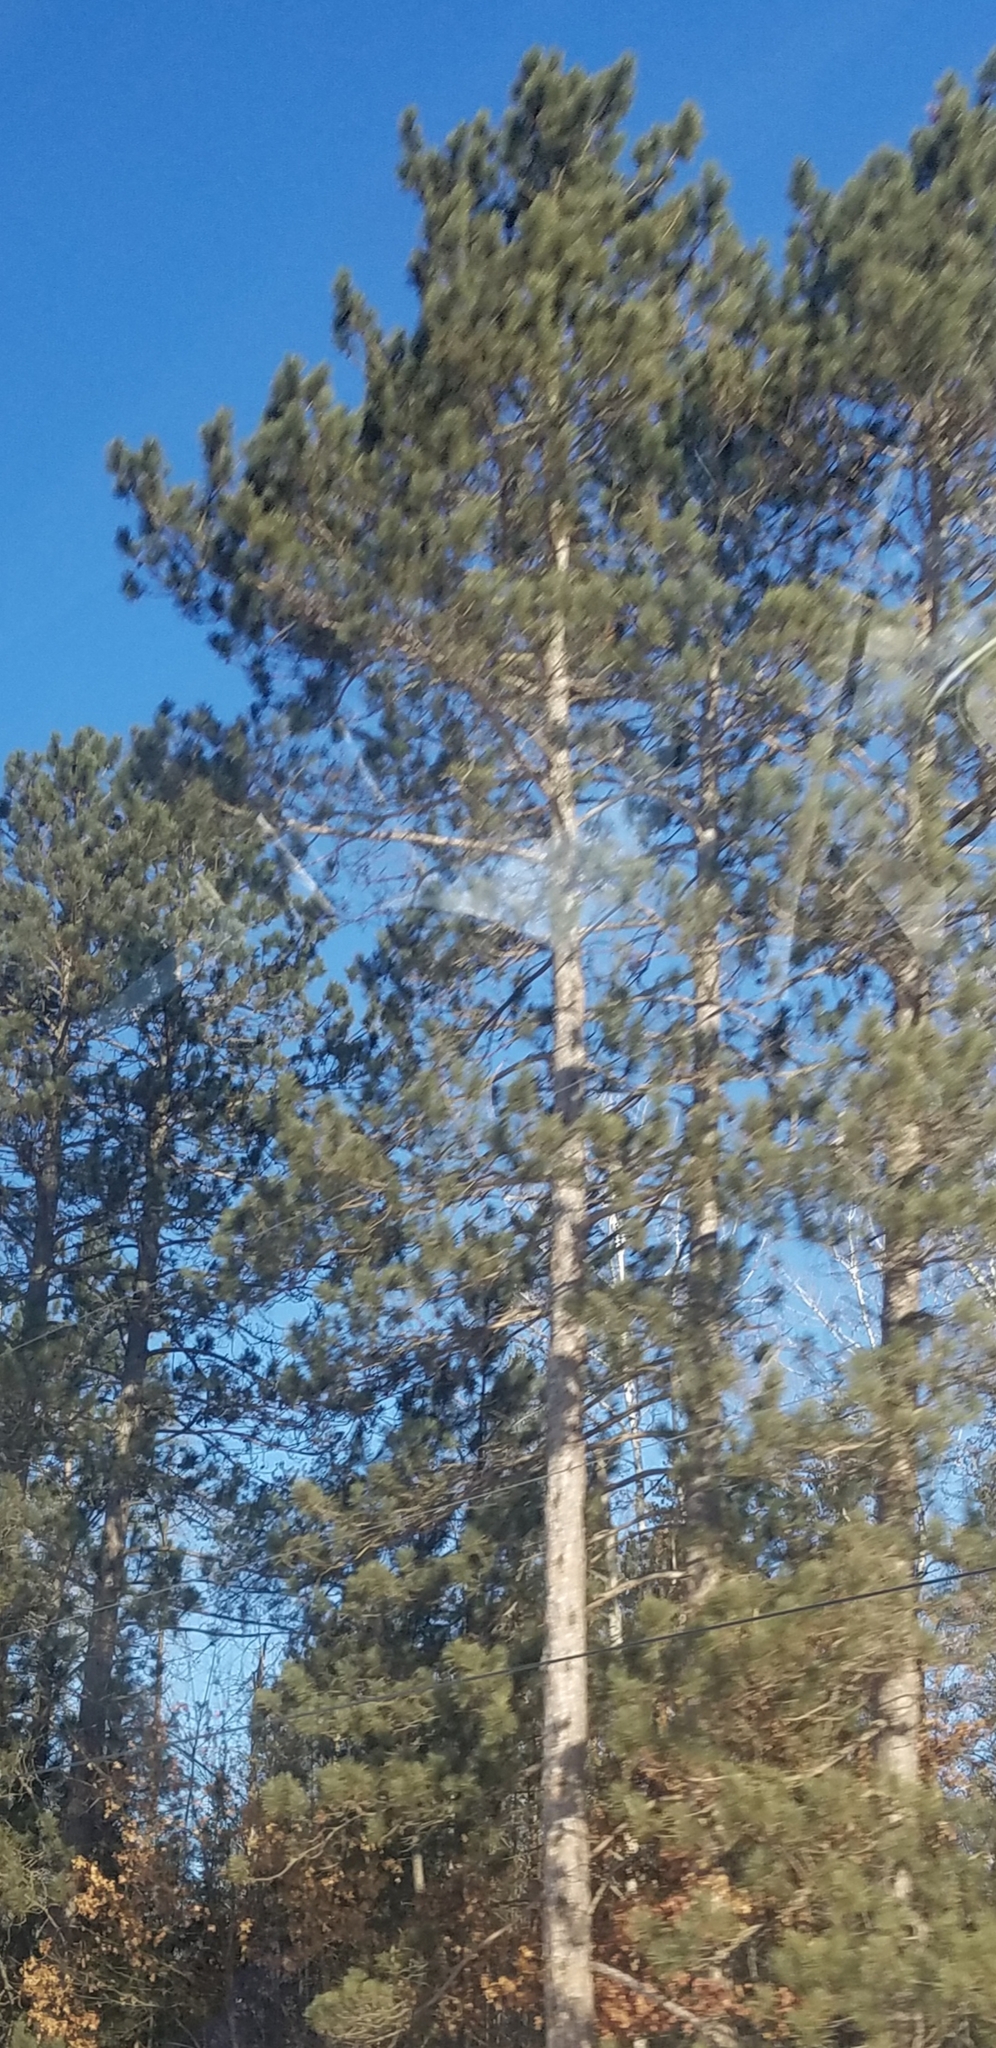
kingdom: Plantae
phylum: Tracheophyta
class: Pinopsida
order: Pinales
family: Pinaceae
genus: Pinus
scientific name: Pinus resinosa
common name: Norway pine
